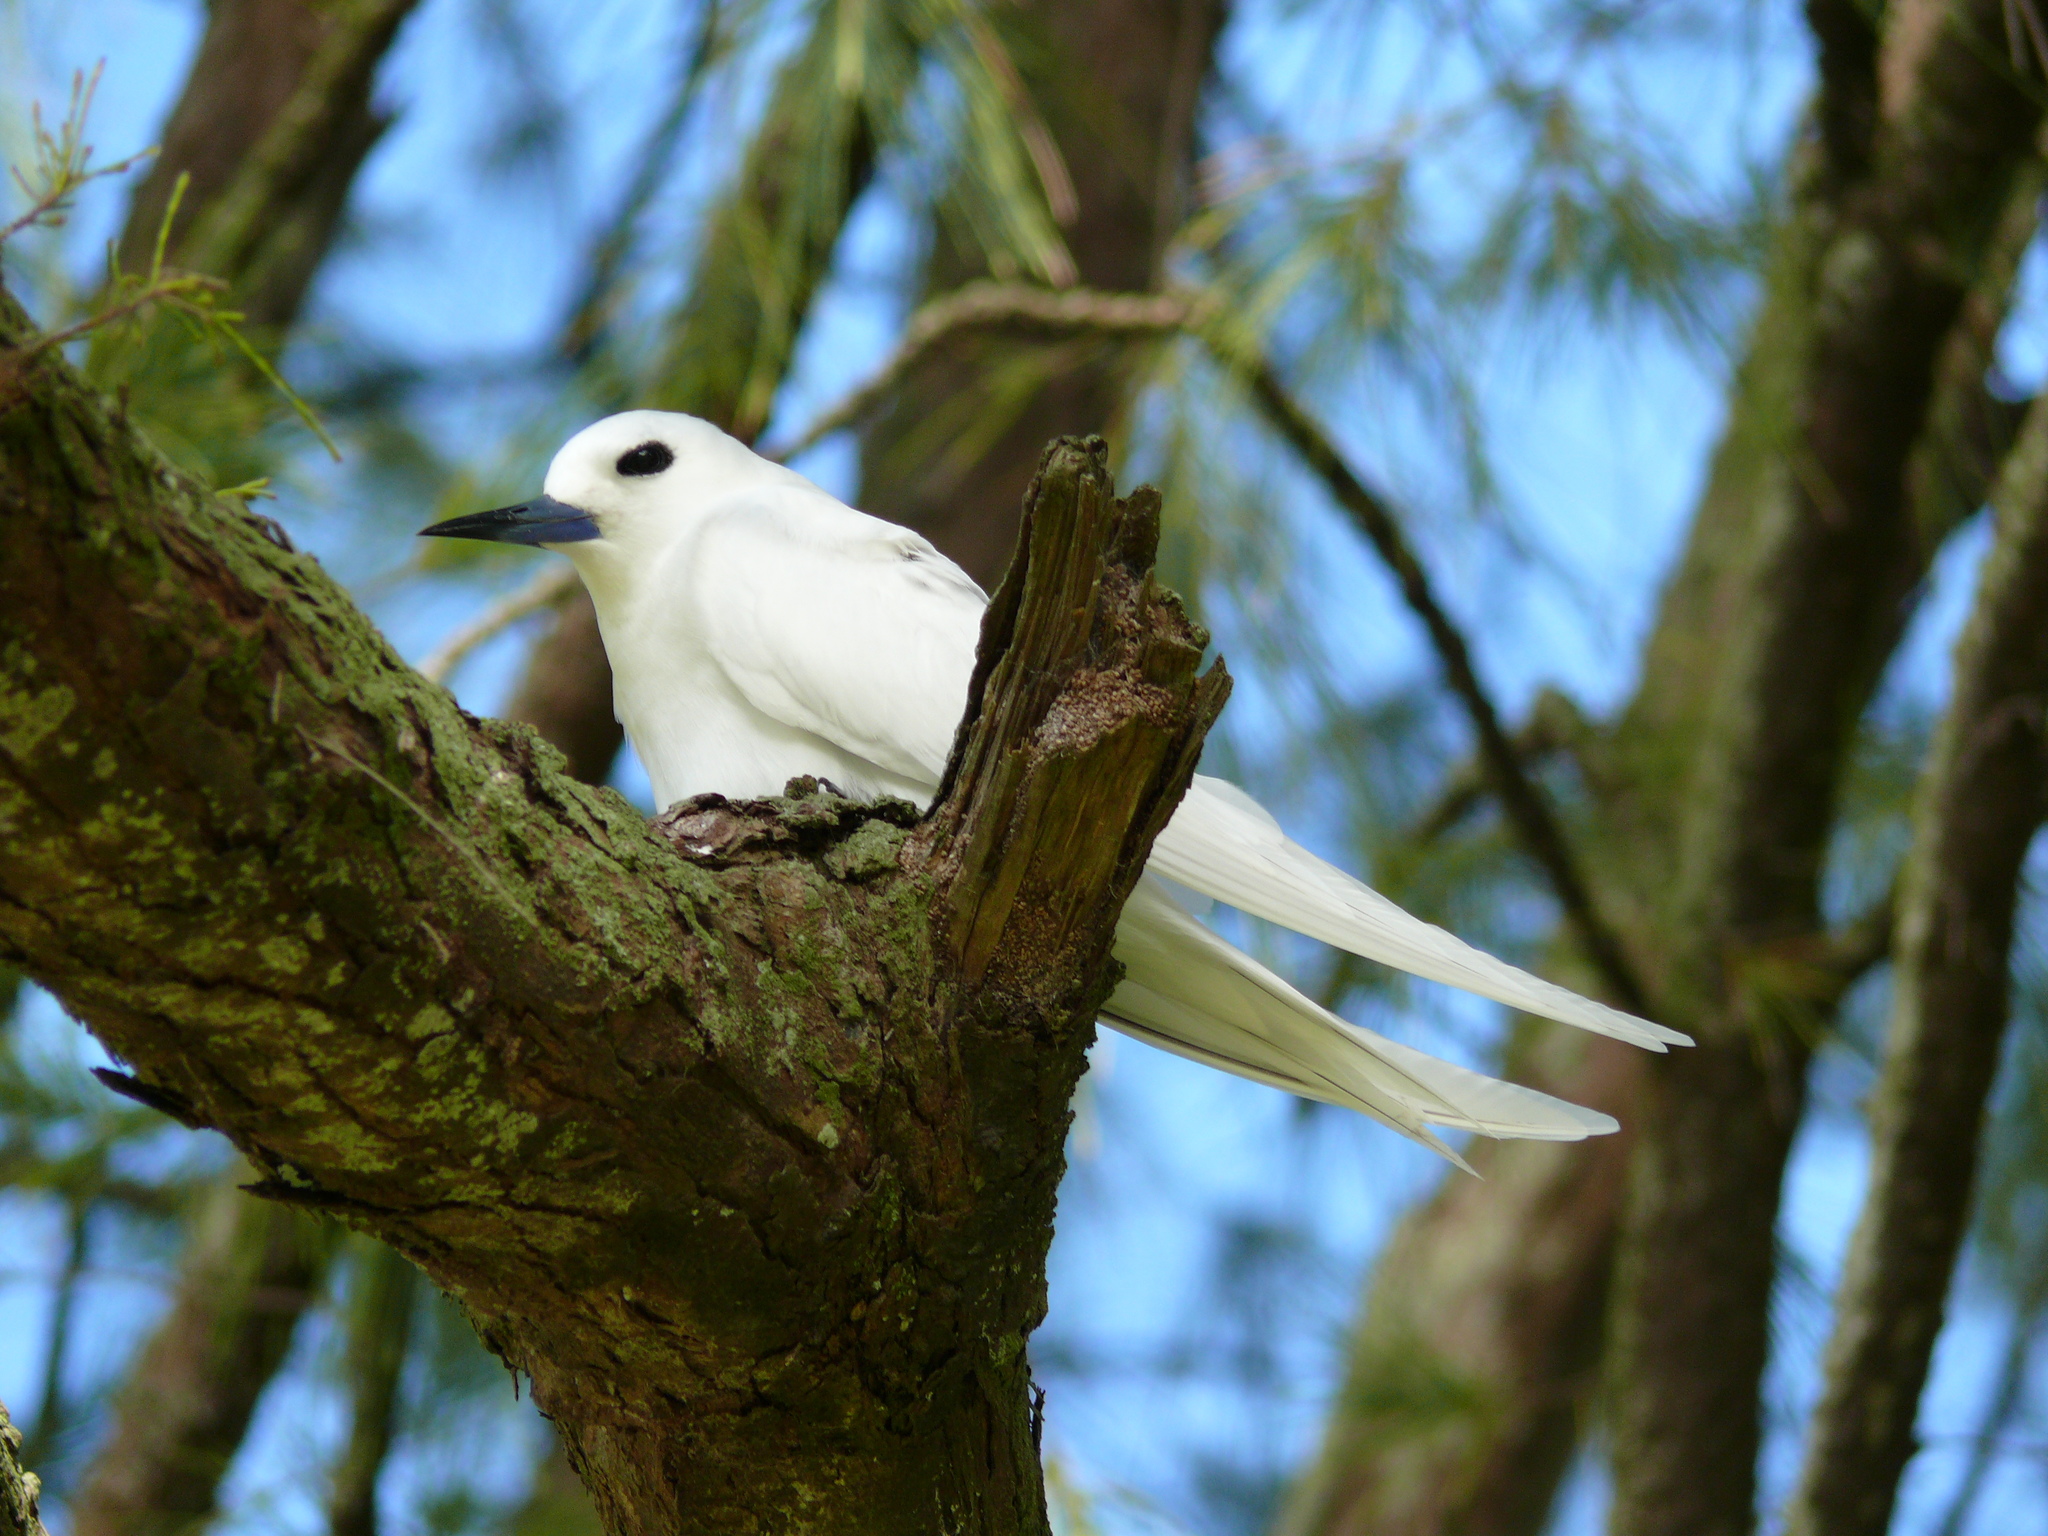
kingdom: Animalia
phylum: Chordata
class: Aves
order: Charadriiformes
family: Laridae
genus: Gygis
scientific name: Gygis alba
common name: White tern
